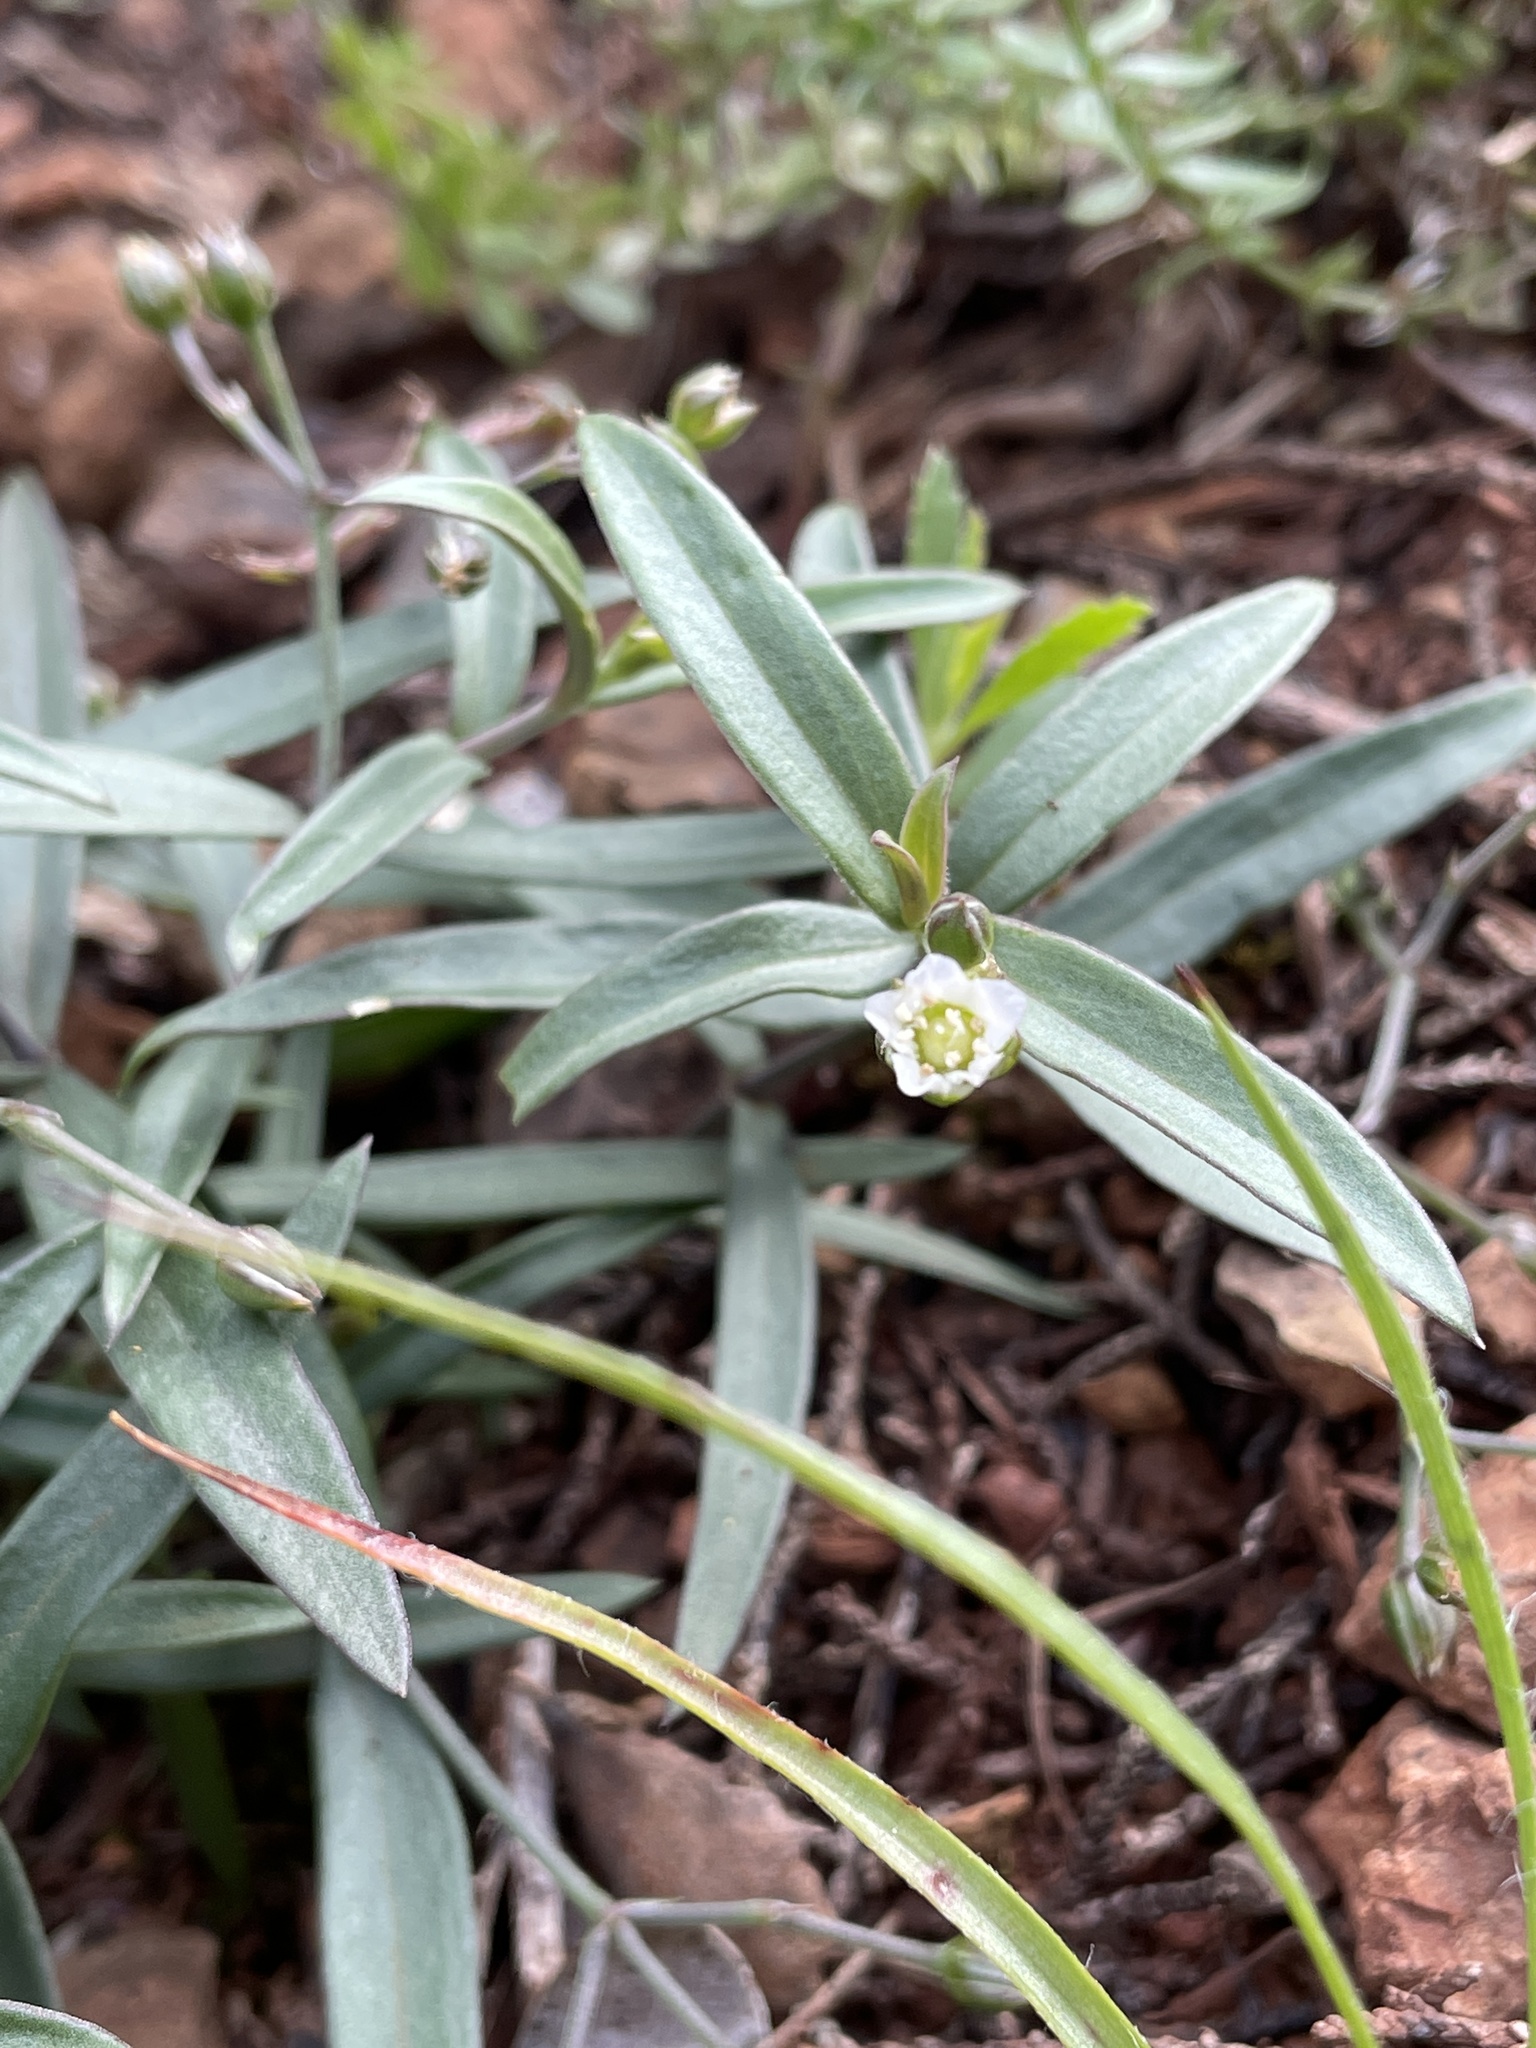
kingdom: Plantae
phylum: Tracheophyta
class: Magnoliopsida
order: Caryophyllales
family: Caryophyllaceae
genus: Moehringia
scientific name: Moehringia macrophylla
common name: Big-leaf sandwort
